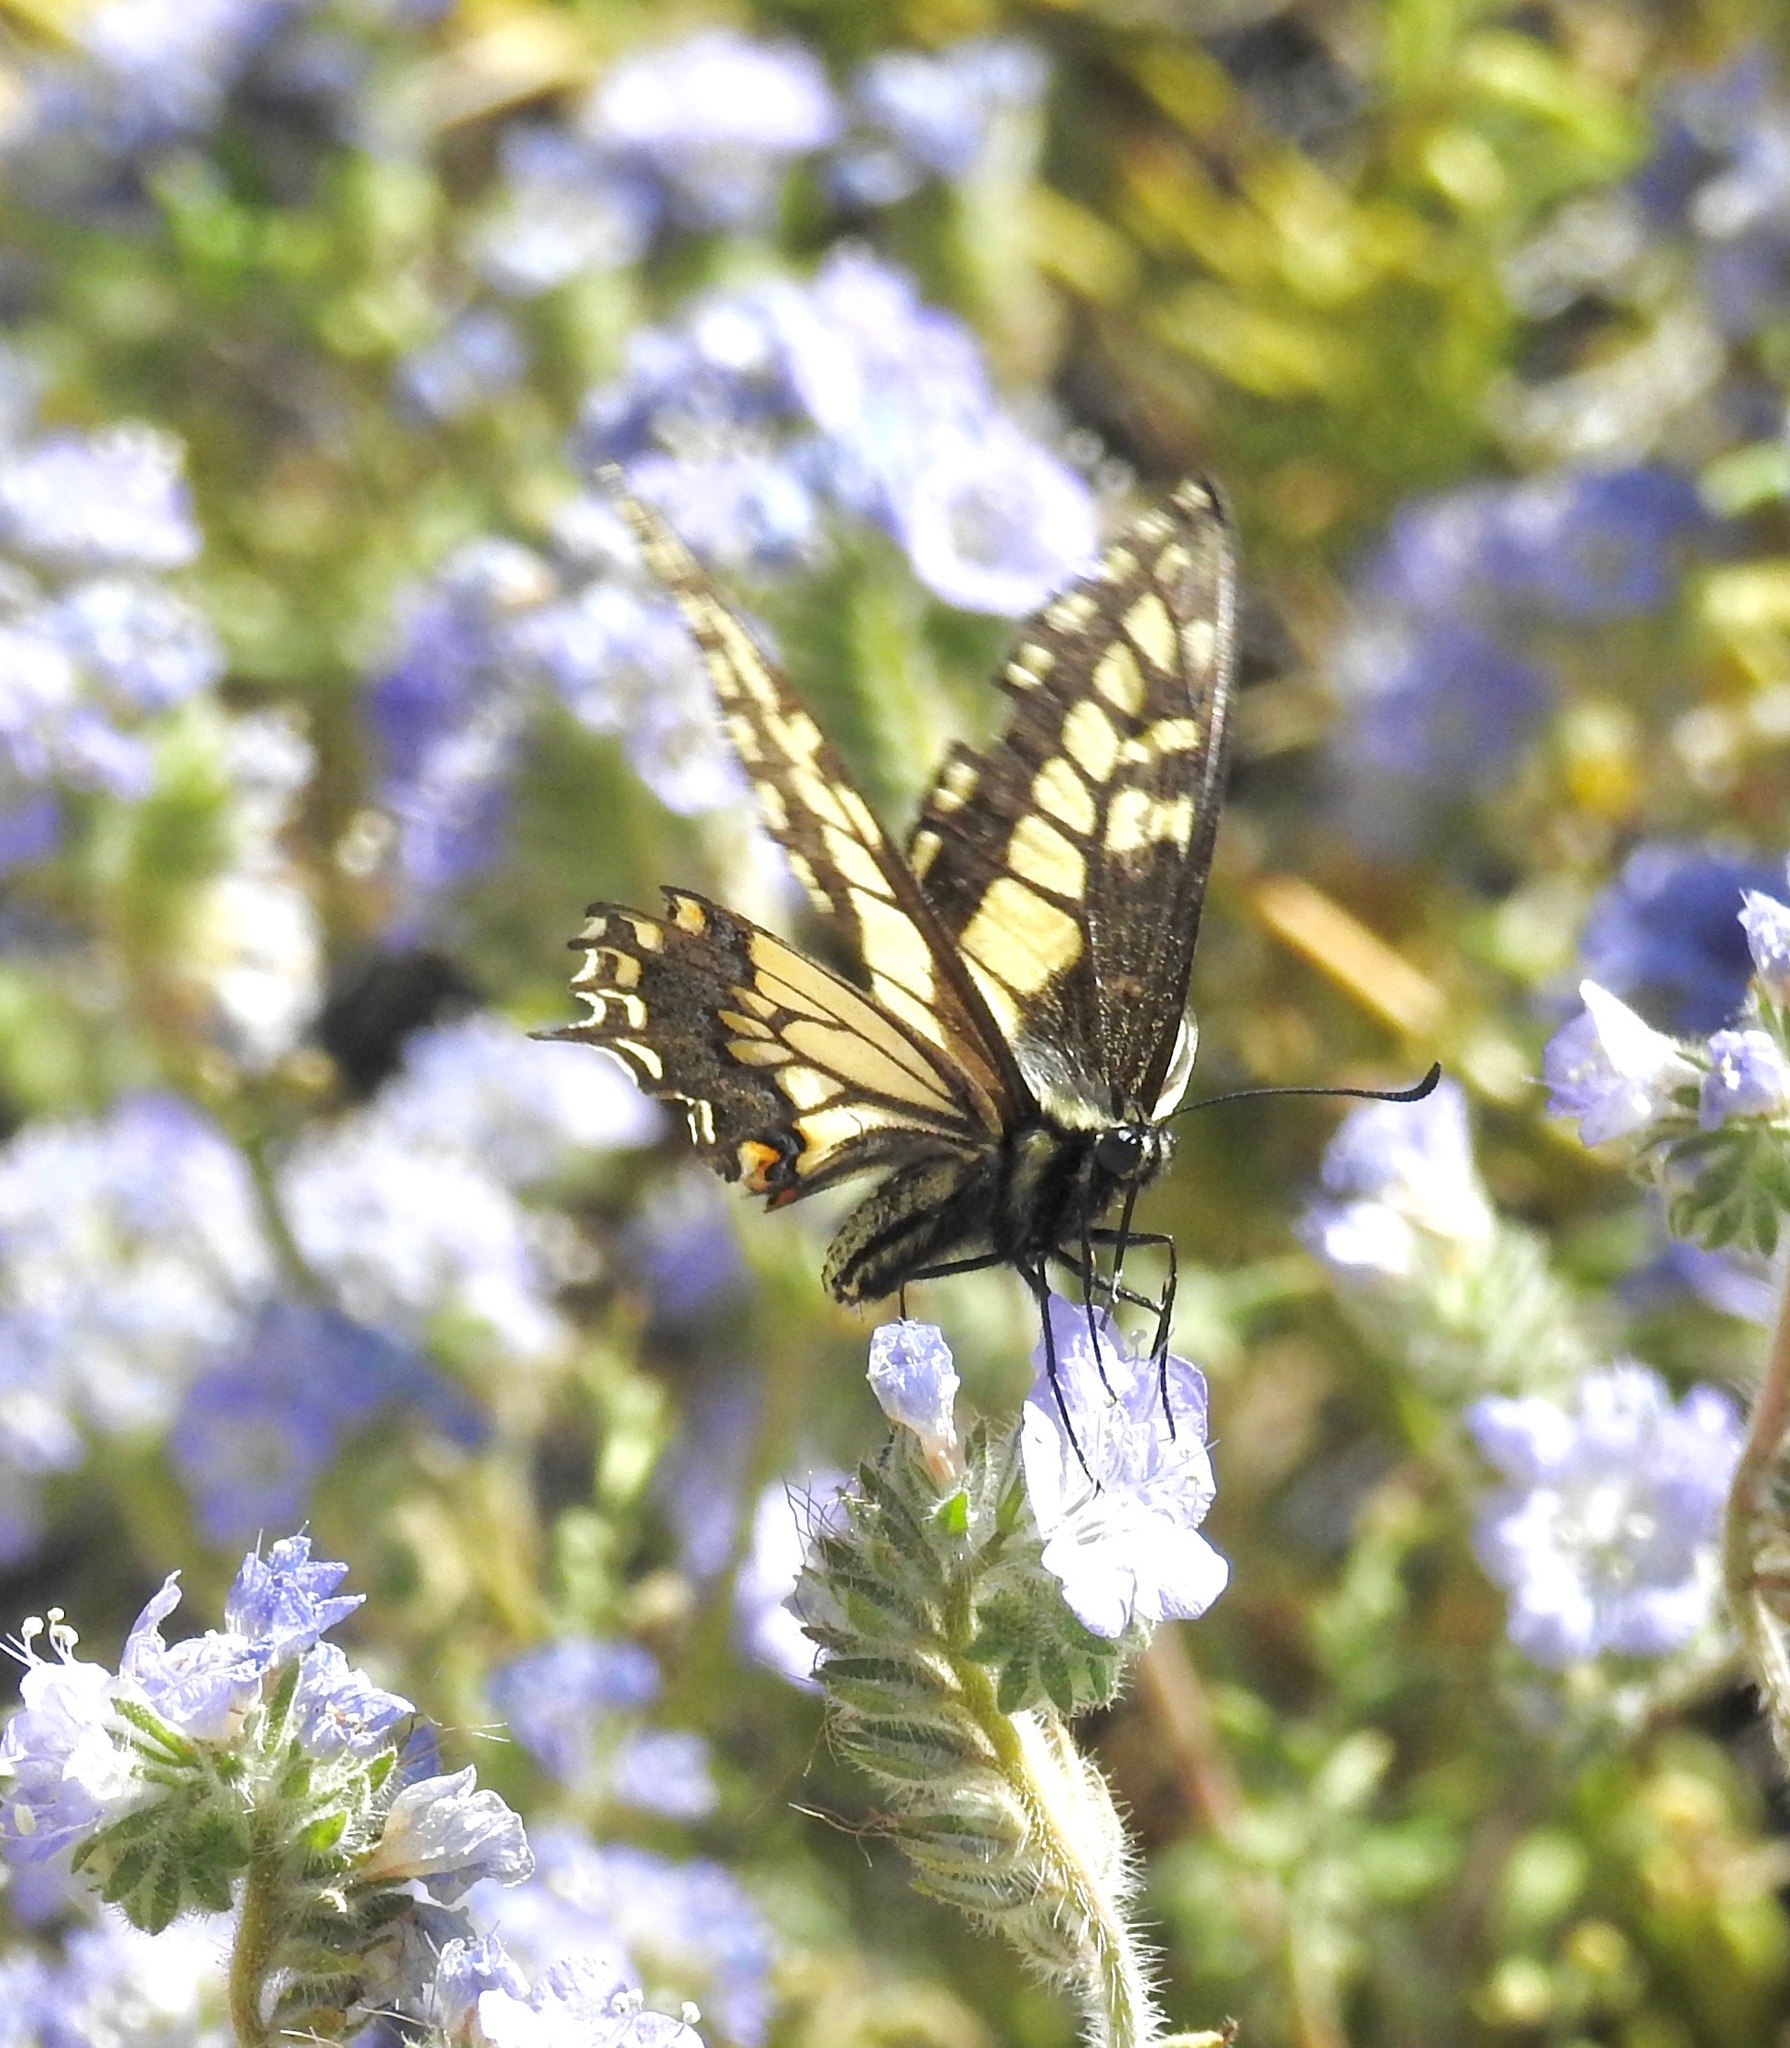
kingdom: Animalia
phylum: Arthropoda
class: Insecta
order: Lepidoptera
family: Papilionidae
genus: Papilio
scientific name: Papilio polyxenes
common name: Black swallowtail
